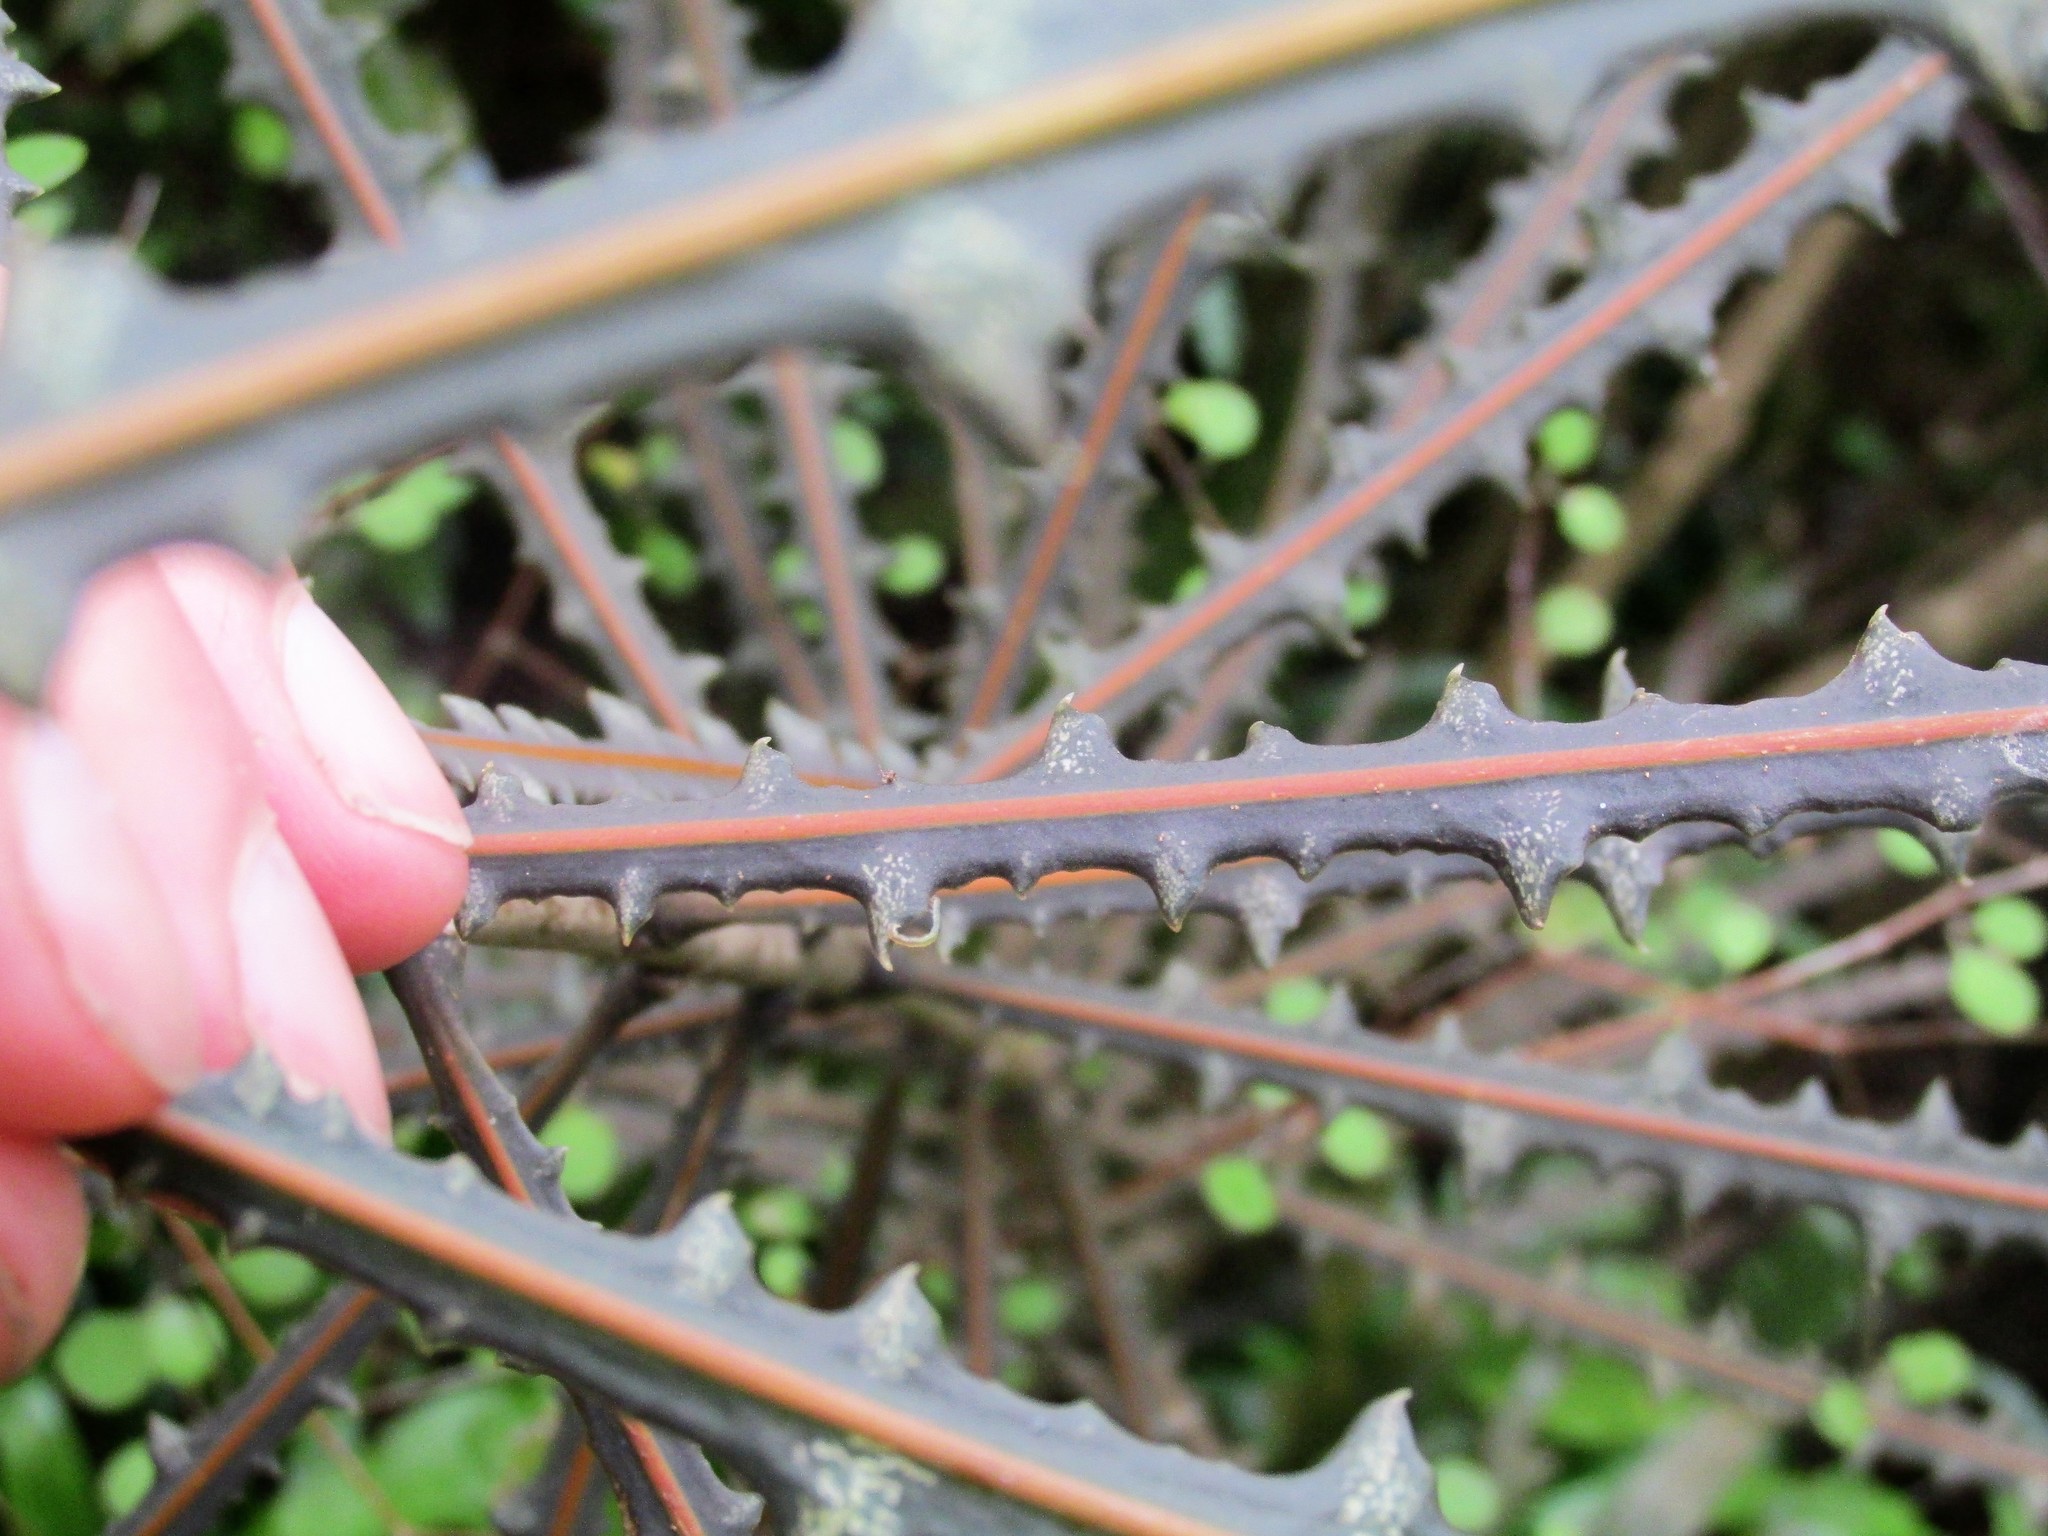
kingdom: Plantae
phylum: Tracheophyta
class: Magnoliopsida
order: Apiales
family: Araliaceae
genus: Pseudopanax
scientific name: Pseudopanax ferox
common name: Fierce lancewood
